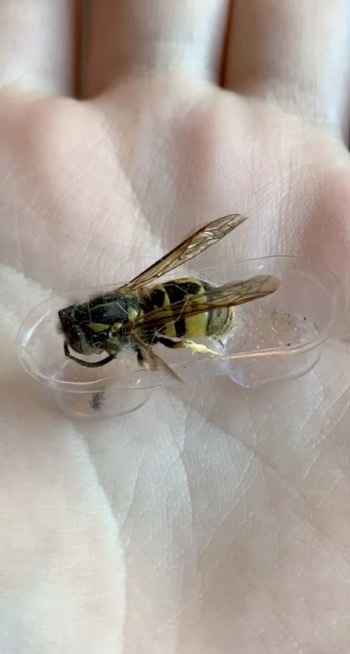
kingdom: Animalia
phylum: Arthropoda
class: Insecta
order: Hymenoptera
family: Vespidae
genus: Vespula
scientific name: Vespula germanica
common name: German wasp
